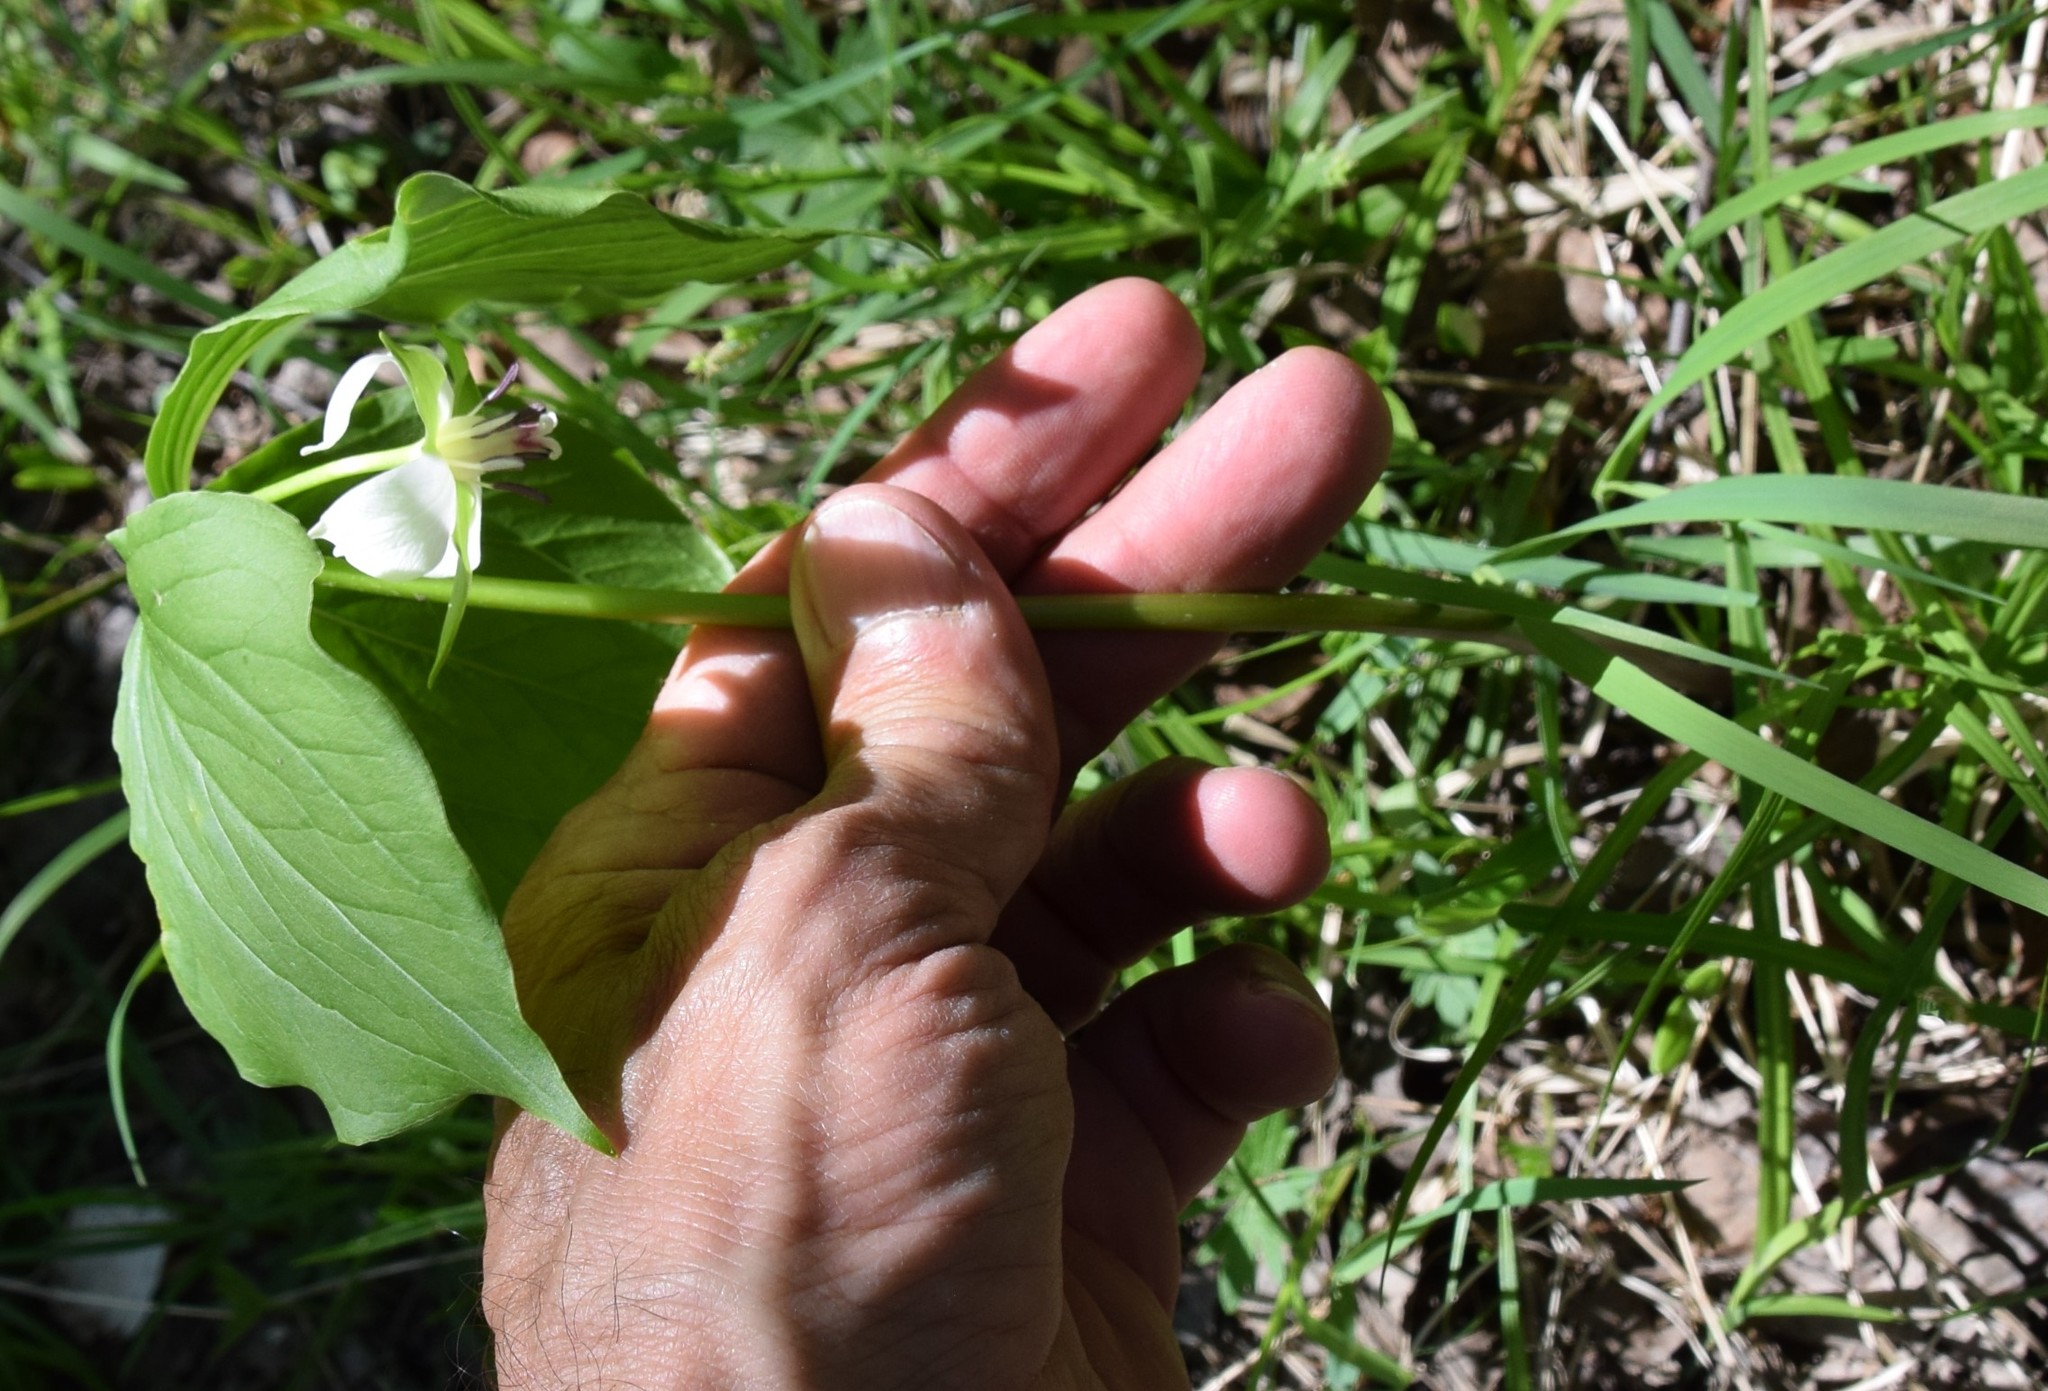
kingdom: Plantae
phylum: Tracheophyta
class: Liliopsida
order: Liliales
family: Melanthiaceae
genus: Trillium
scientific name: Trillium cernuum
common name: Nodding trillium
